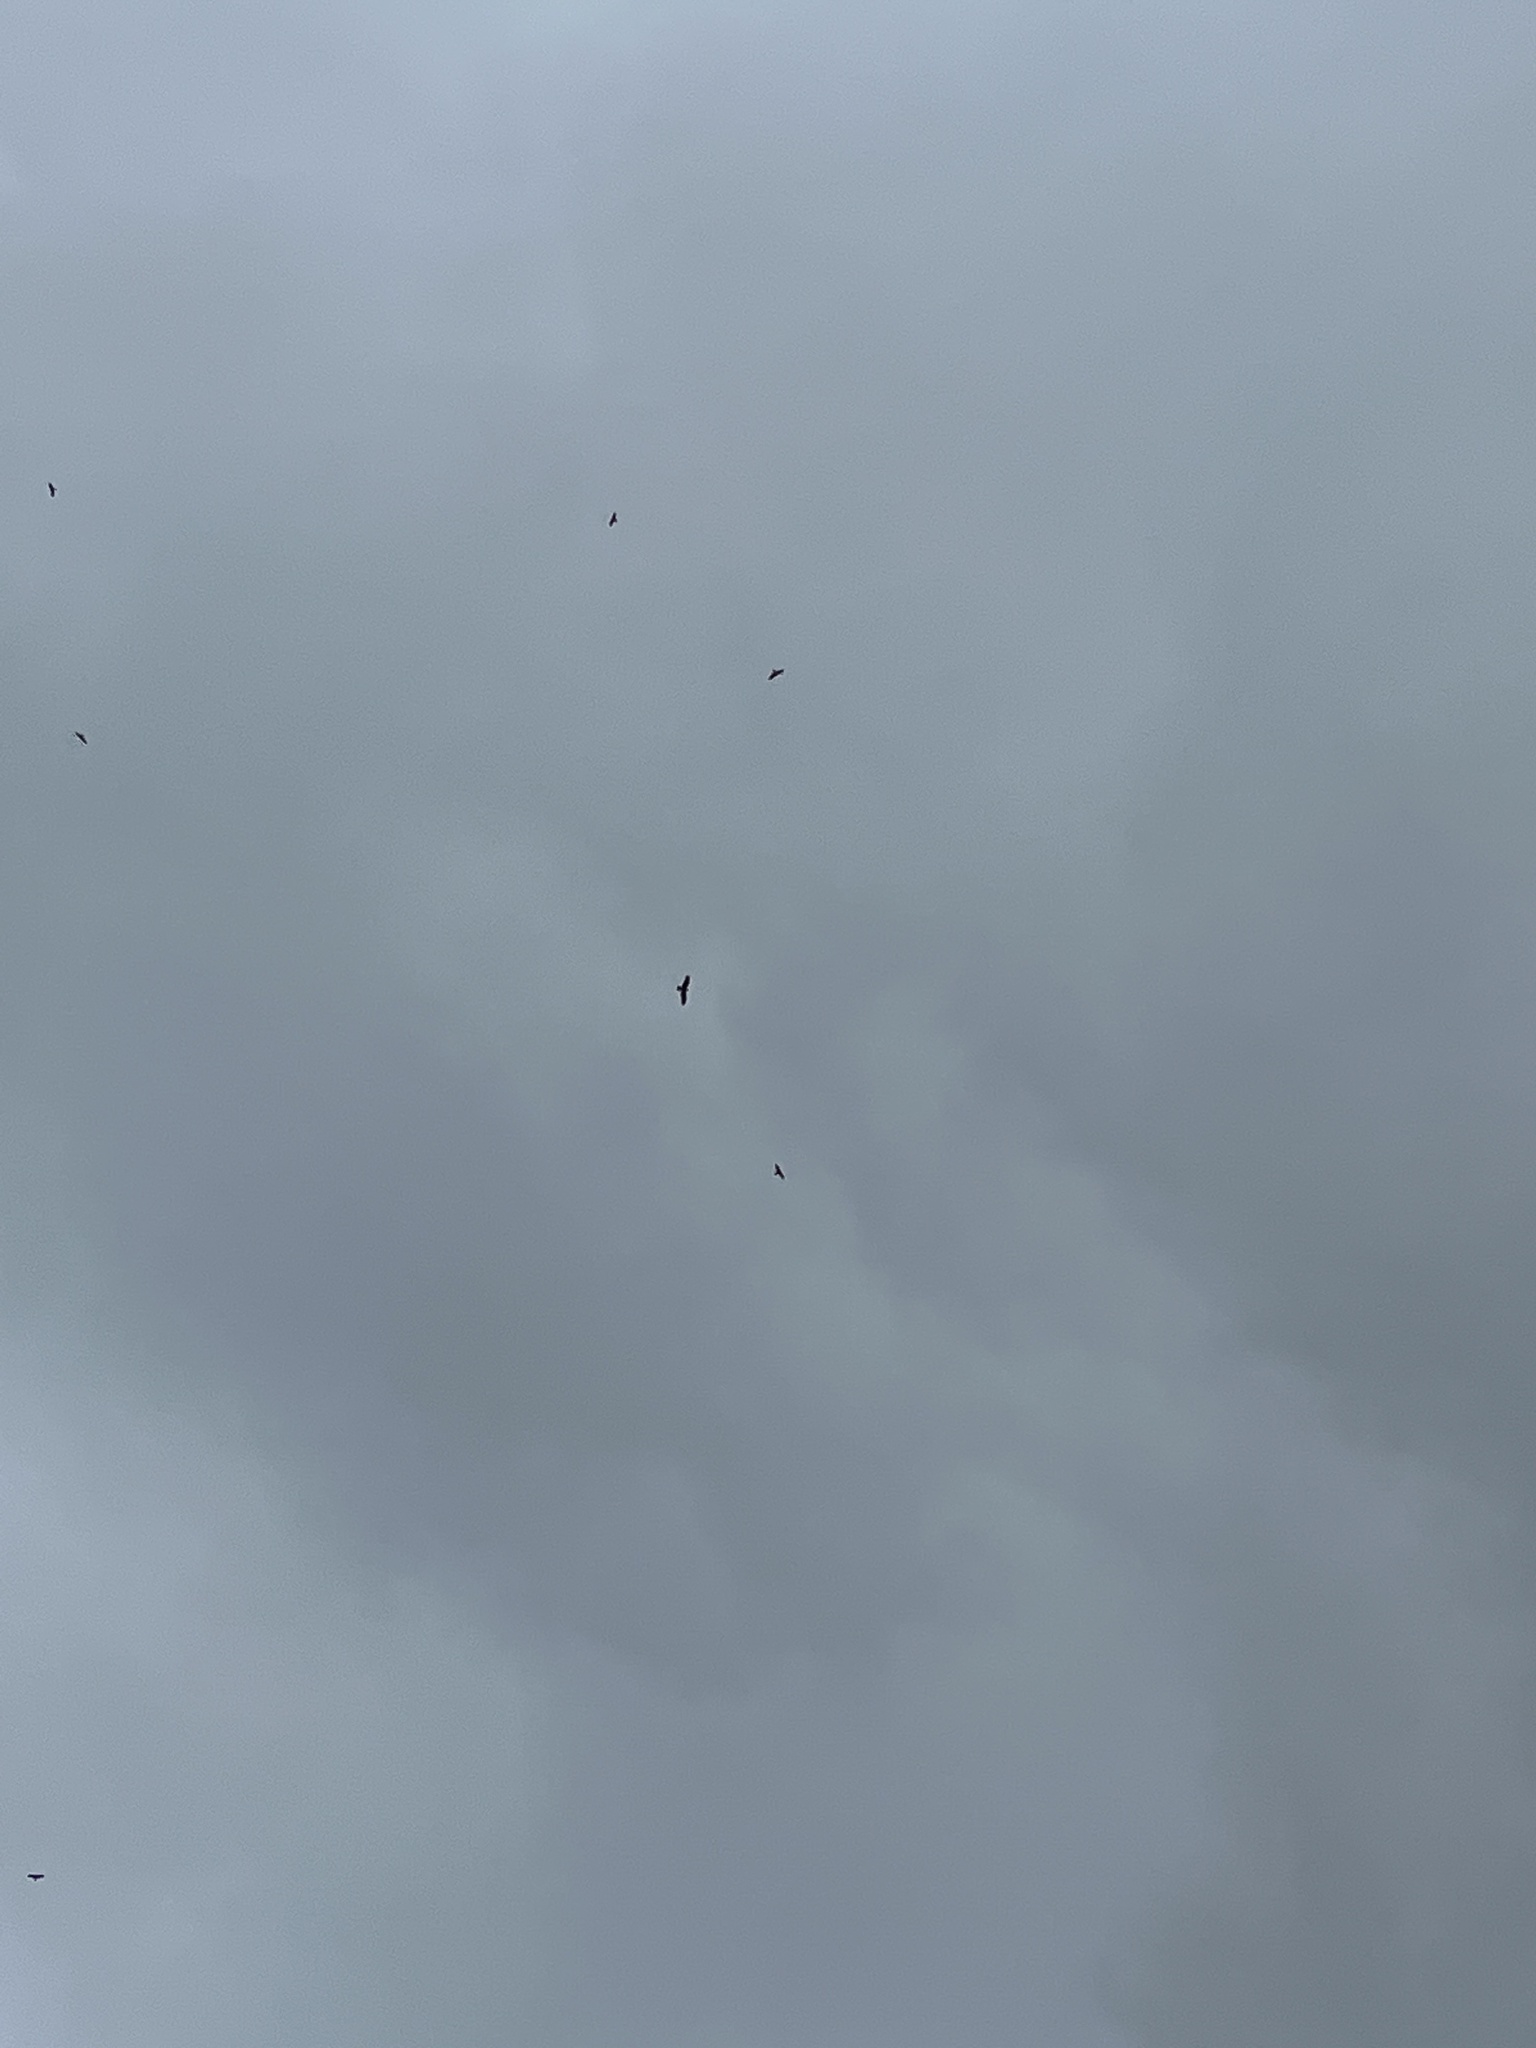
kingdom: Animalia
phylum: Chordata
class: Aves
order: Accipitriformes
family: Accipitridae
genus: Milvus
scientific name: Milvus migrans
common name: Black kite
